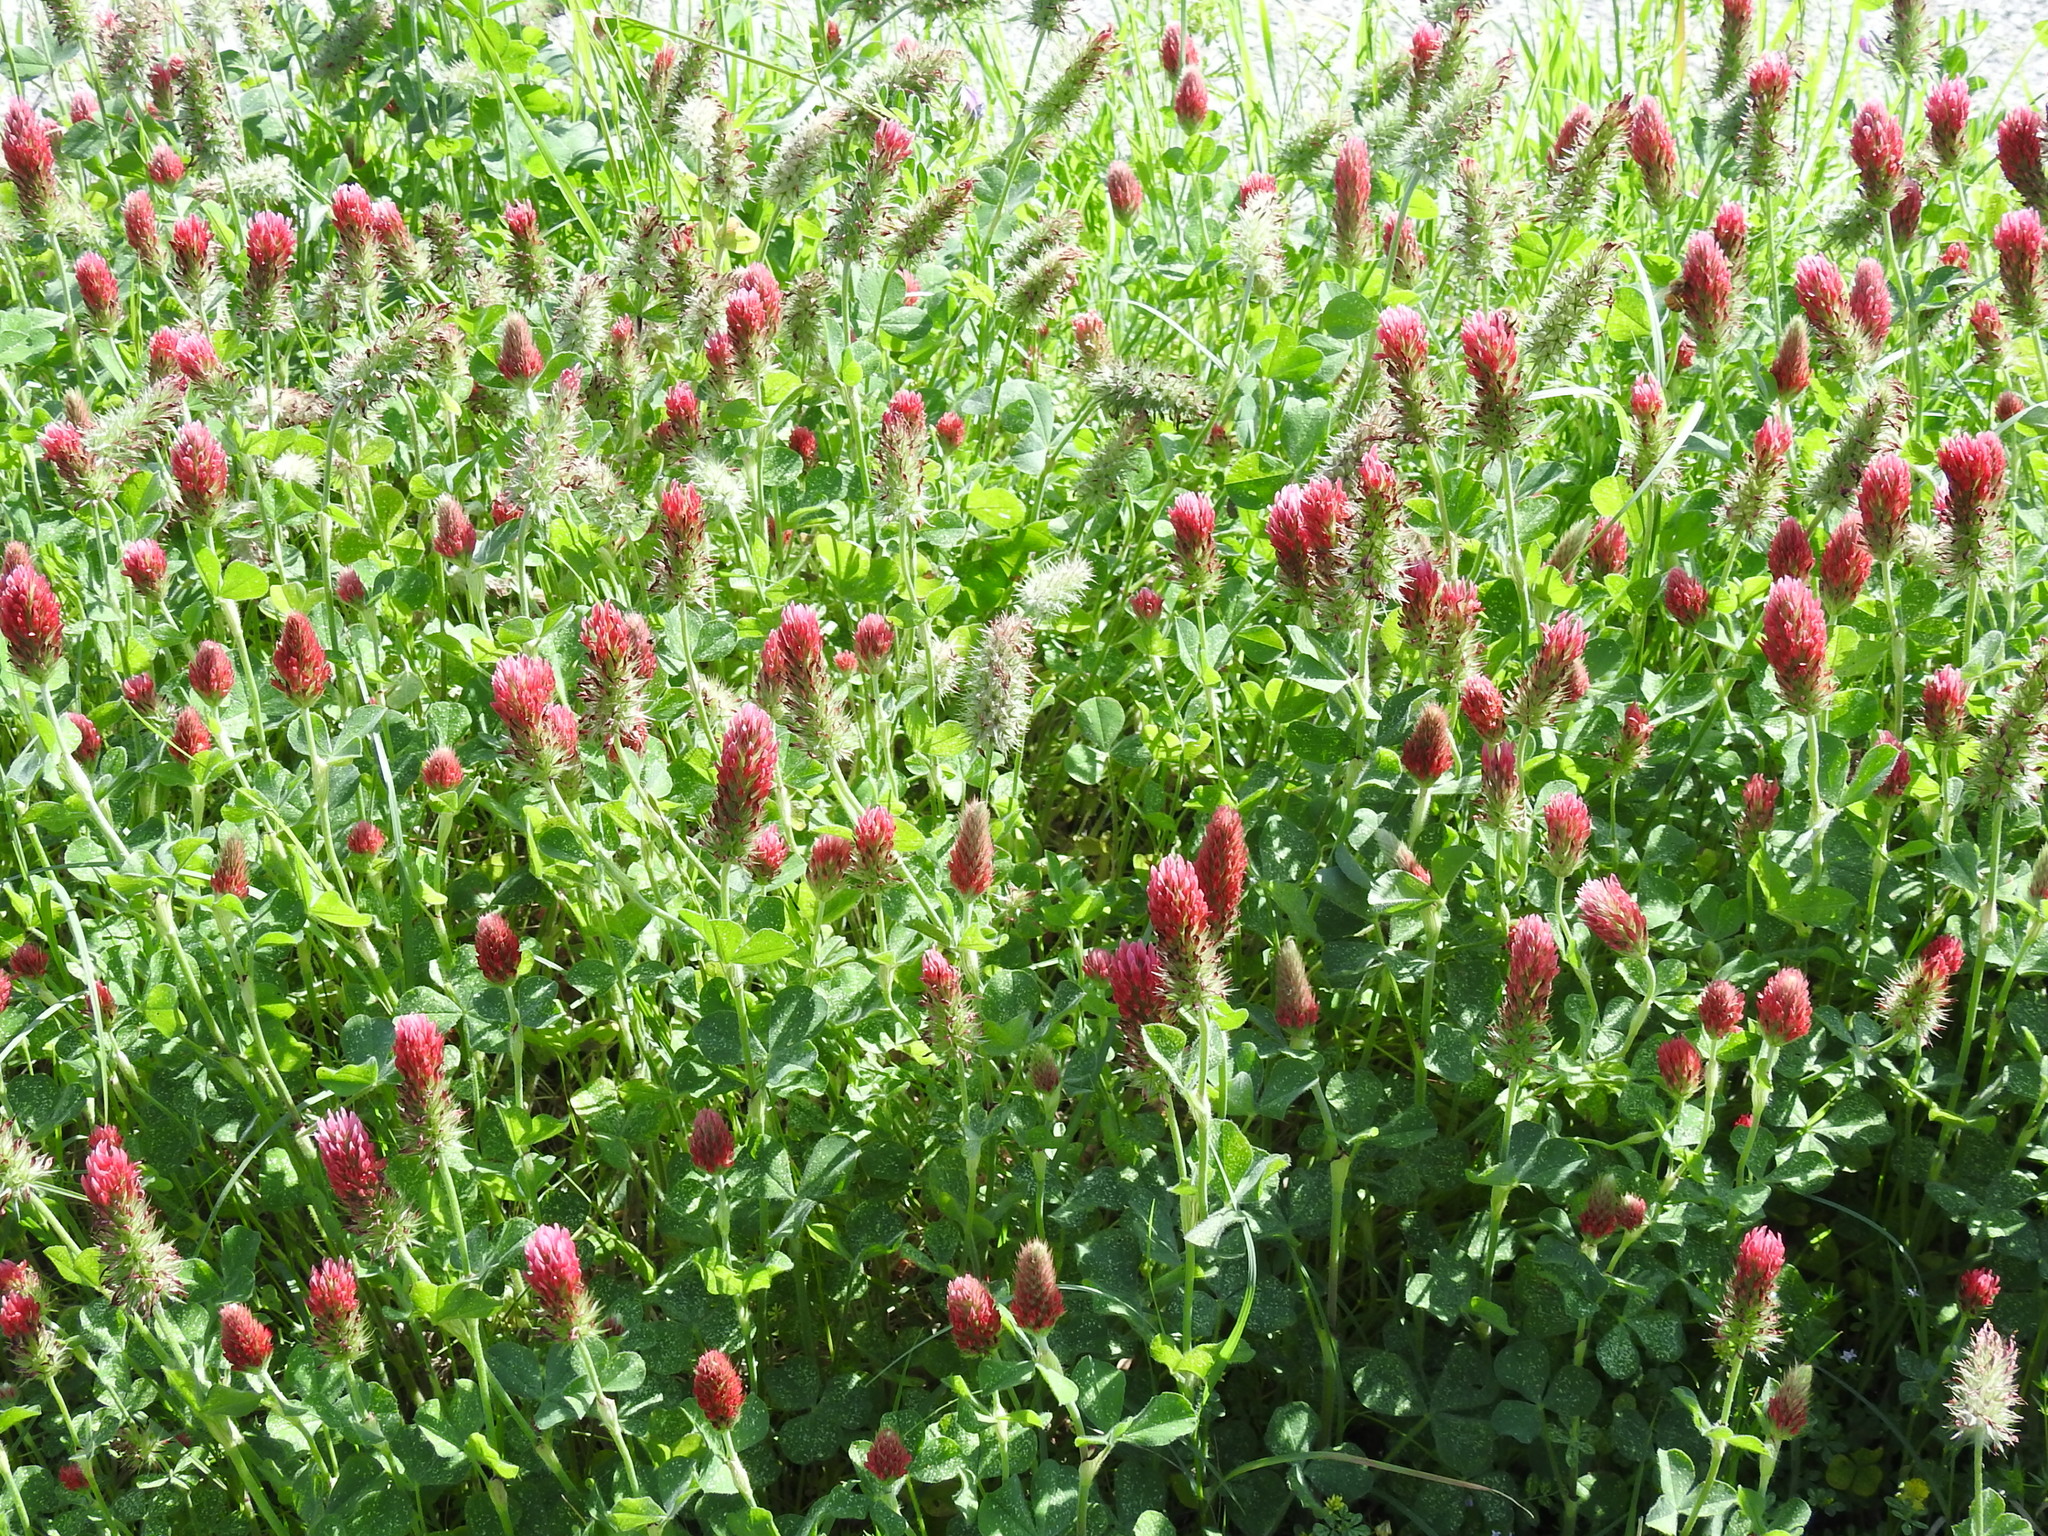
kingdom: Plantae
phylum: Tracheophyta
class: Magnoliopsida
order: Fabales
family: Fabaceae
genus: Trifolium
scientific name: Trifolium incarnatum
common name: Crimson clover
